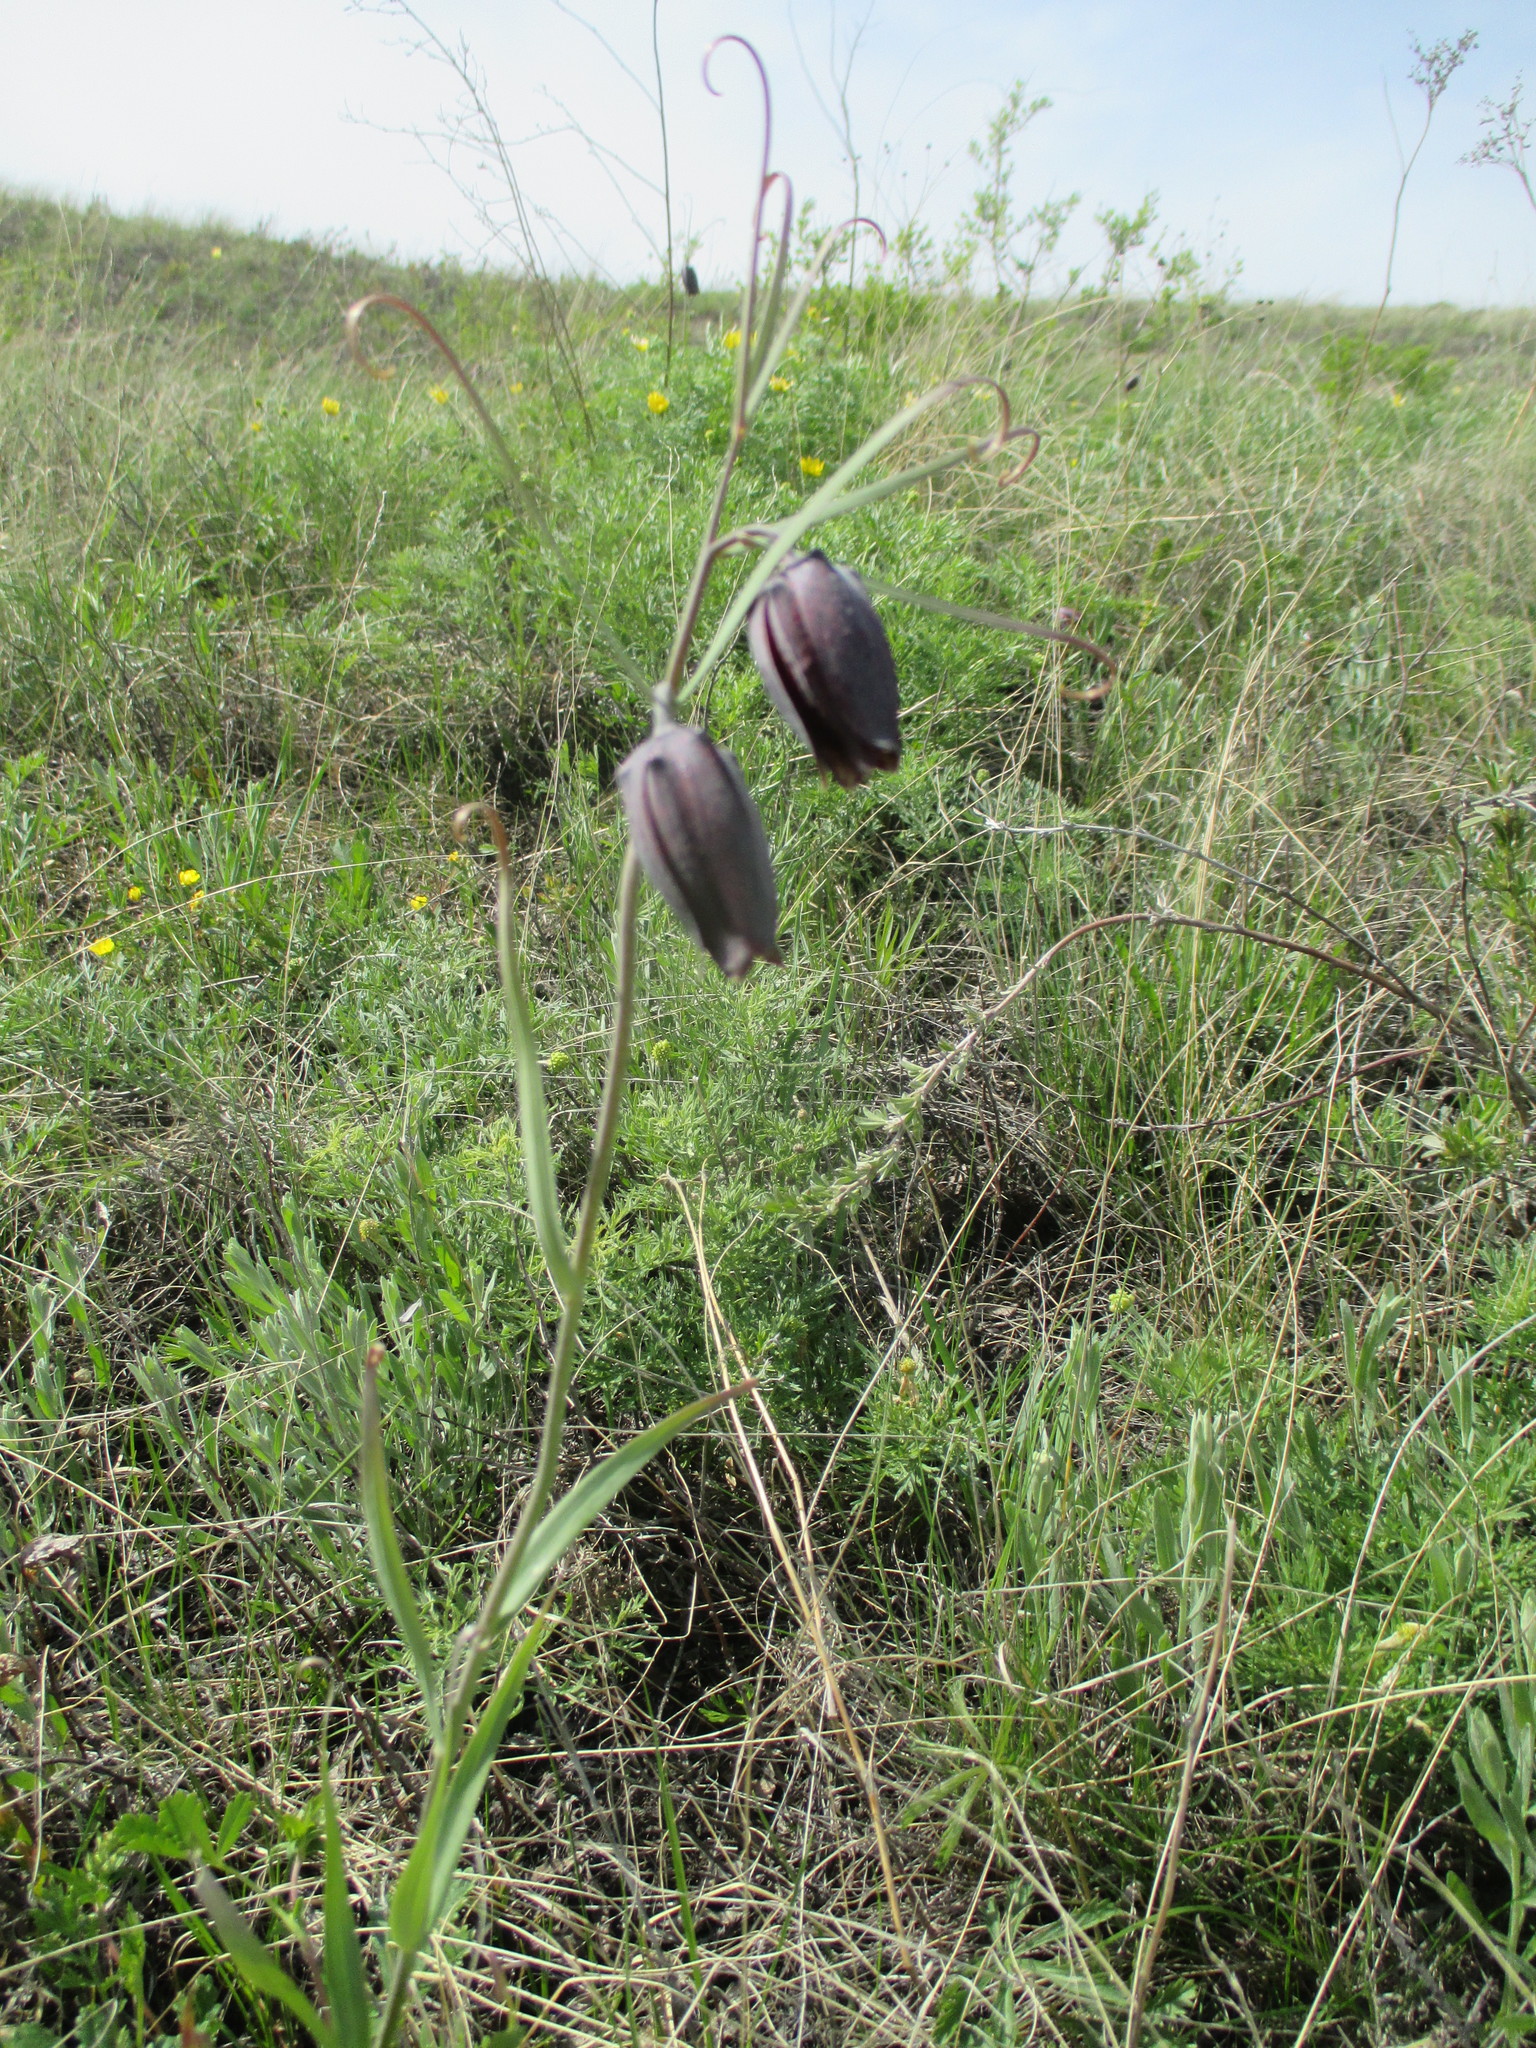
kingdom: Plantae
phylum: Tracheophyta
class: Liliopsida
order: Liliales
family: Liliaceae
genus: Fritillaria
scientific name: Fritillaria ruthenica
